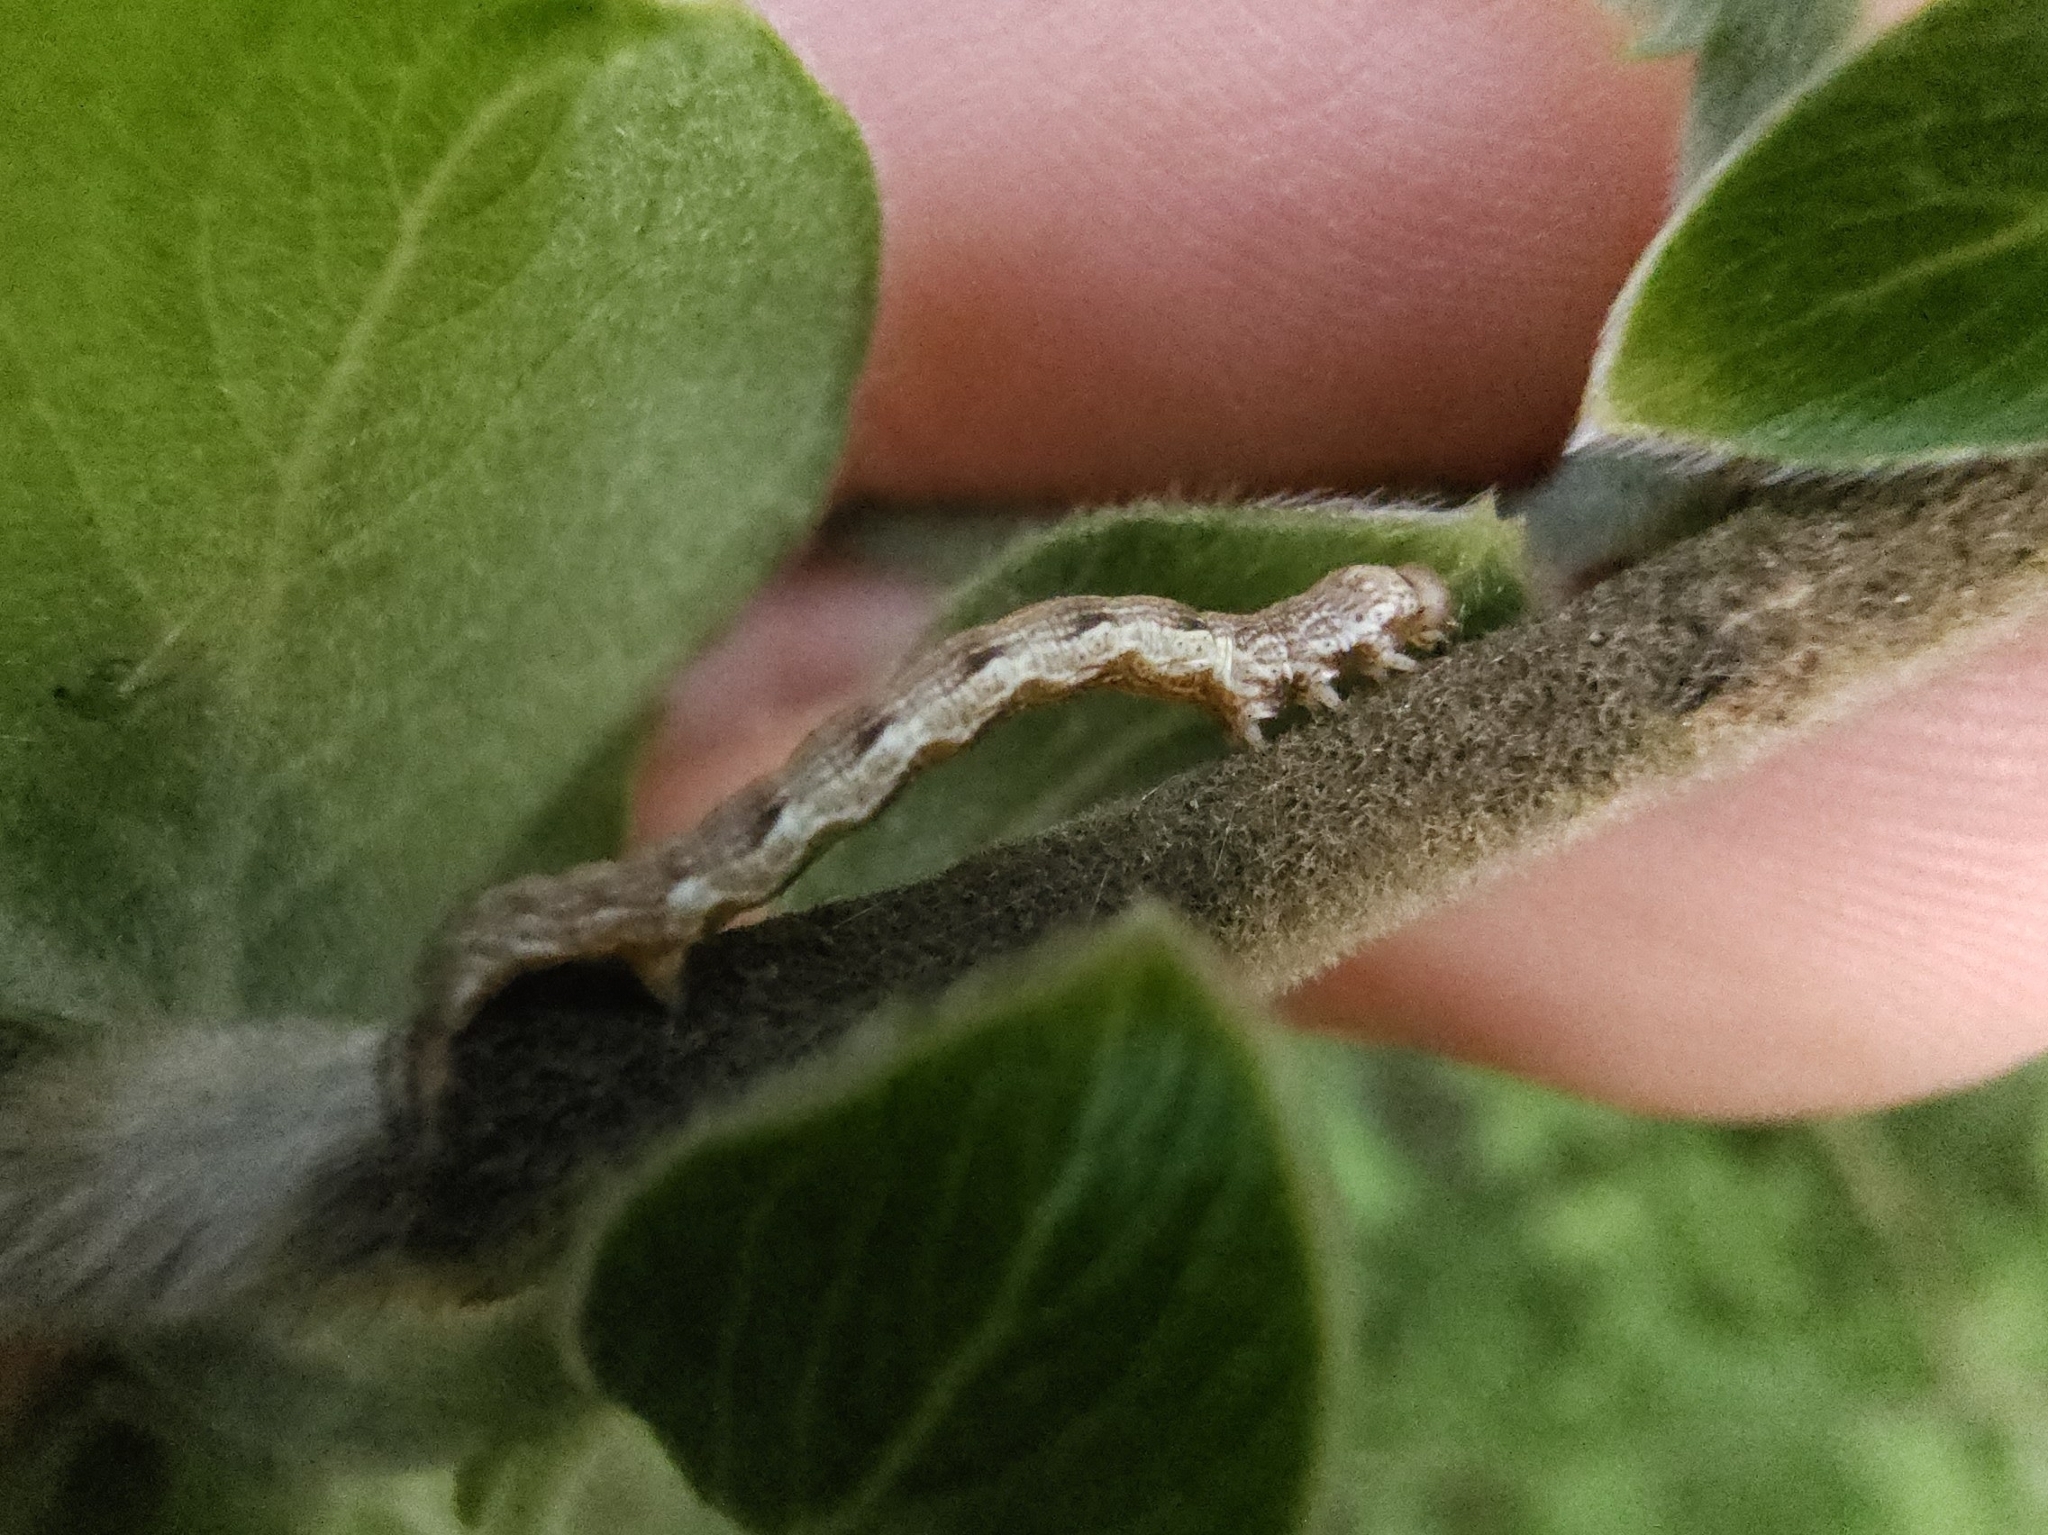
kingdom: Animalia
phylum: Arthropoda
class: Insecta
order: Lepidoptera
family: Geometridae
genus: Erannis
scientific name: Erannis defoliaria
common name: Mottled umber
